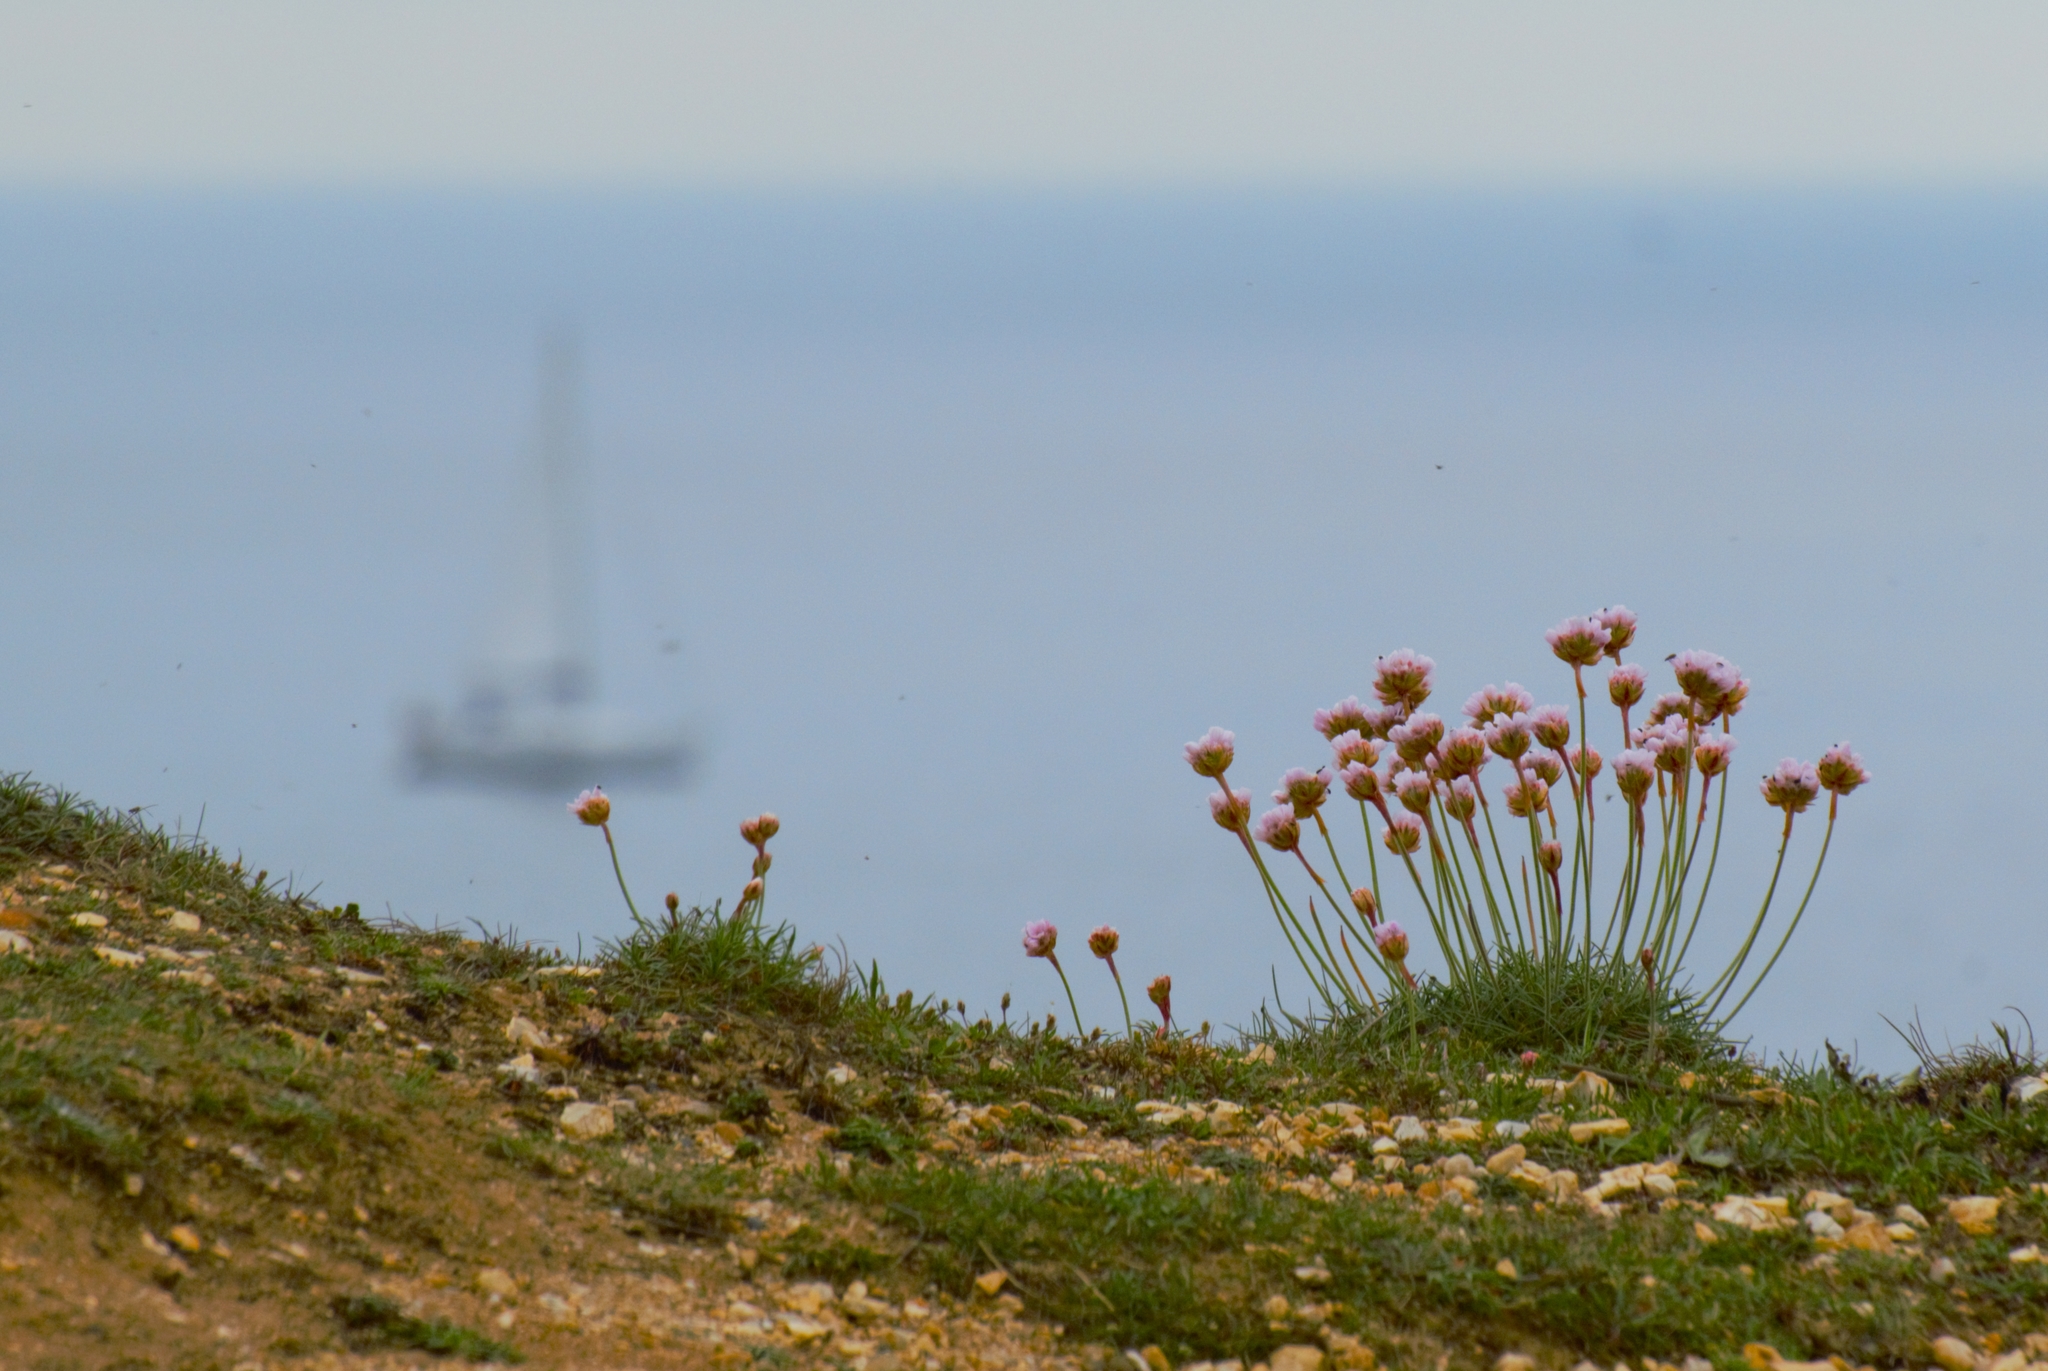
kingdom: Plantae
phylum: Tracheophyta
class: Magnoliopsida
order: Caryophyllales
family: Plumbaginaceae
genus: Armeria
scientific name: Armeria maritima
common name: Thrift
